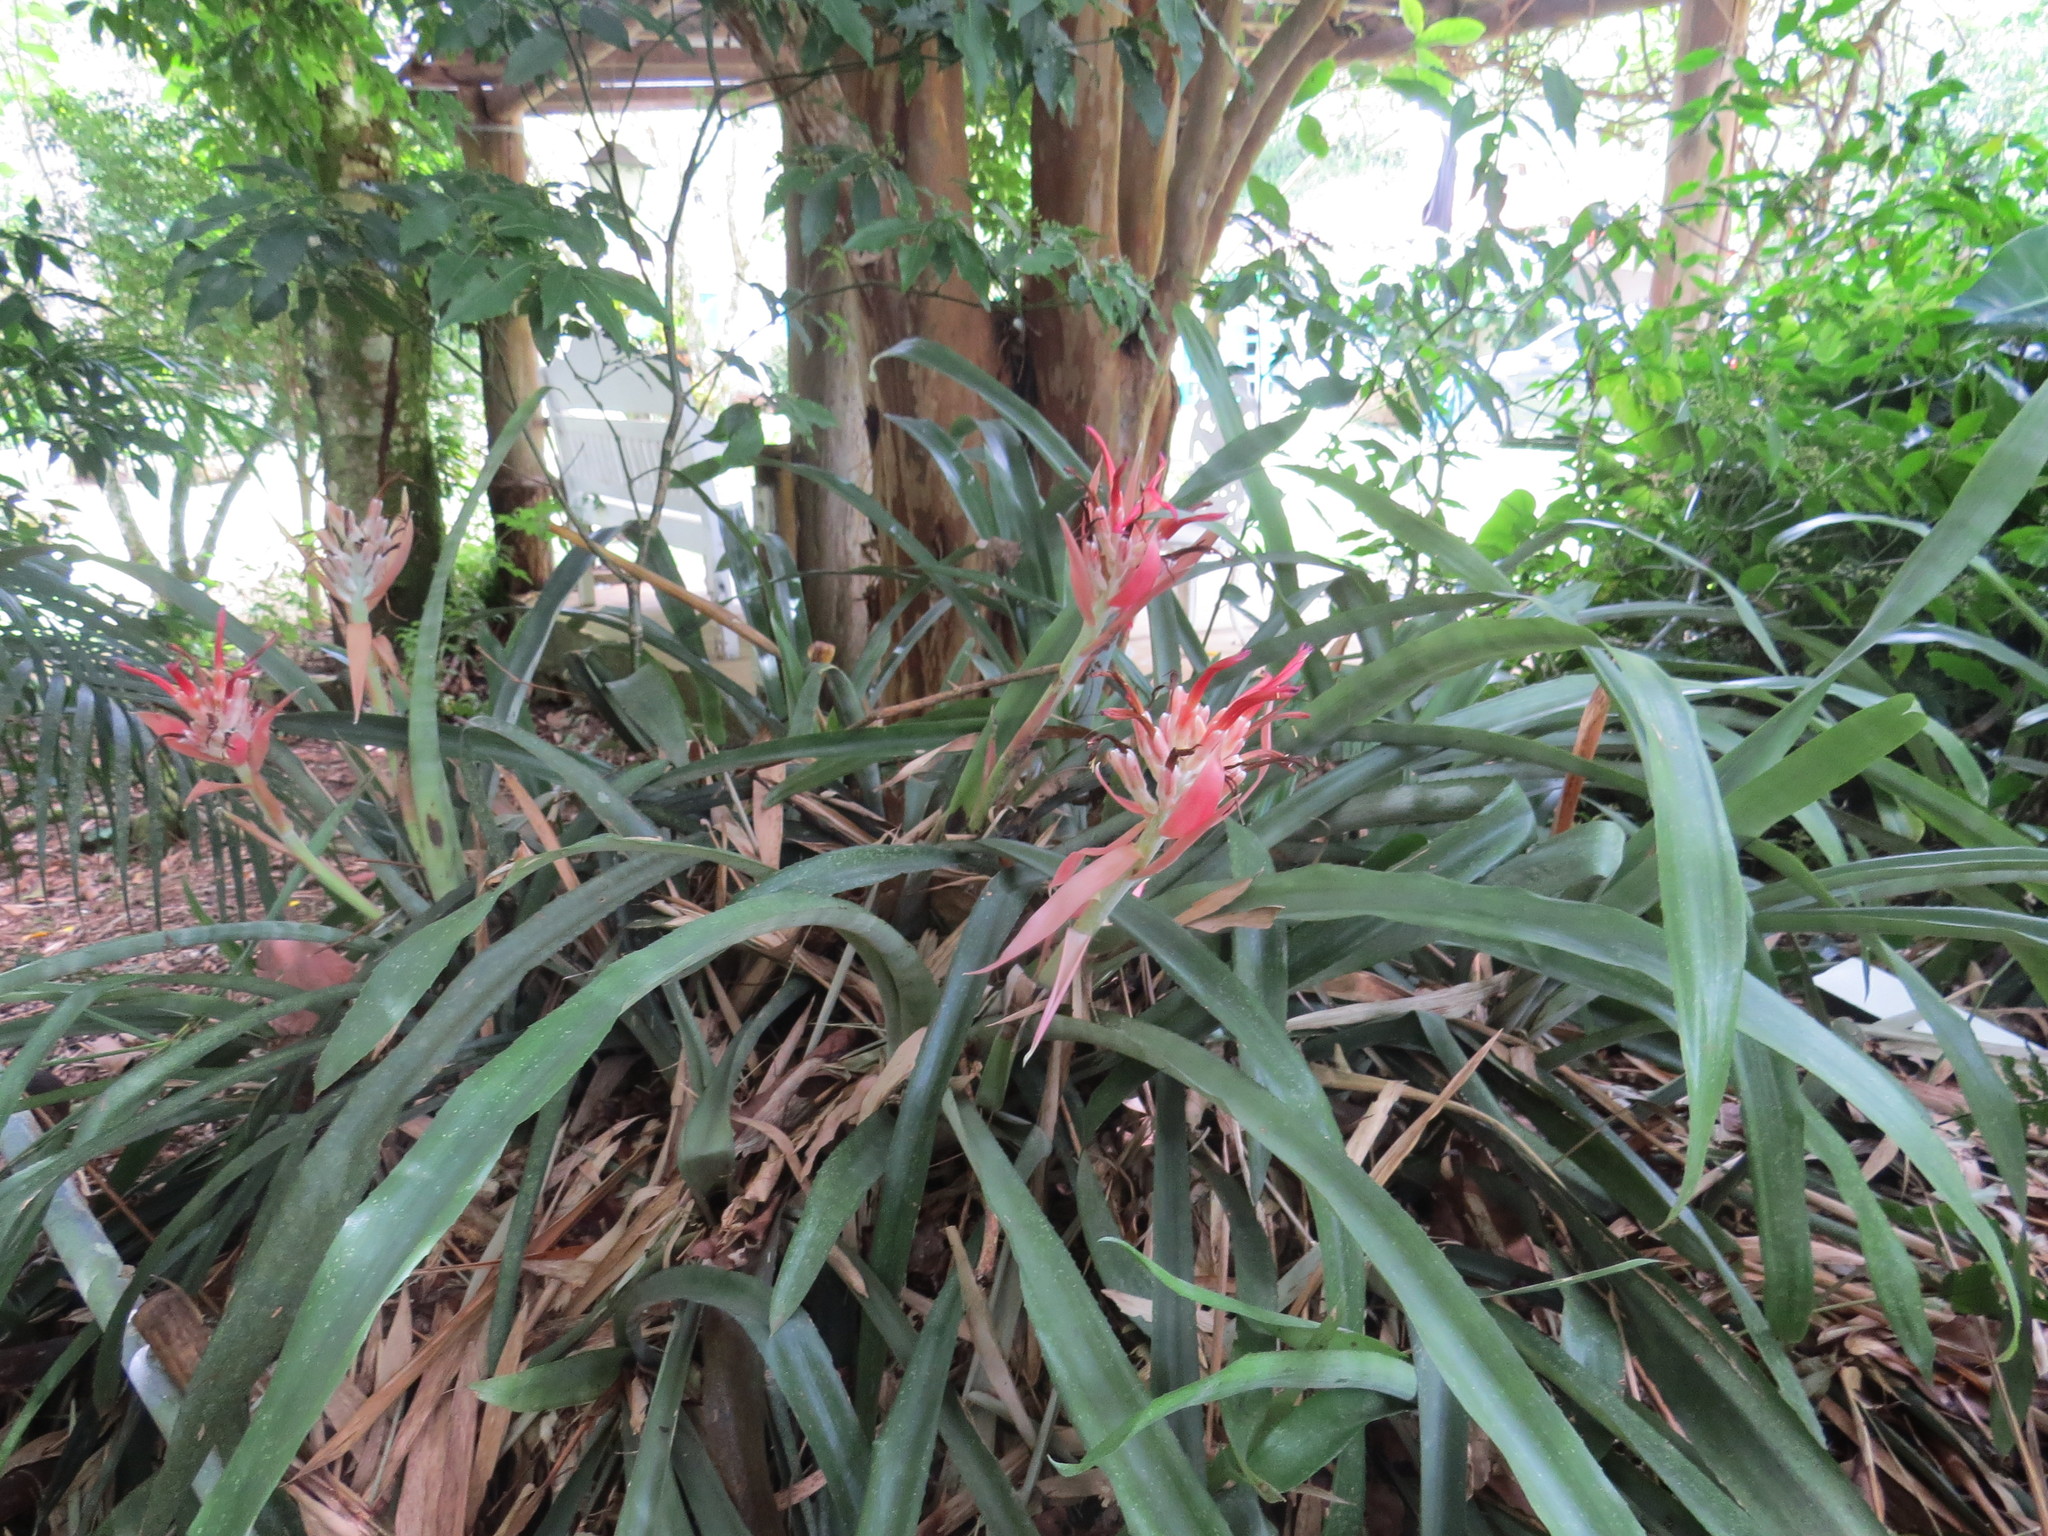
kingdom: Plantae
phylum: Tracheophyta
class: Liliopsida
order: Poales
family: Bromeliaceae
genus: Billbergia
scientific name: Billbergia pyramidalis
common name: Foolproofplant
